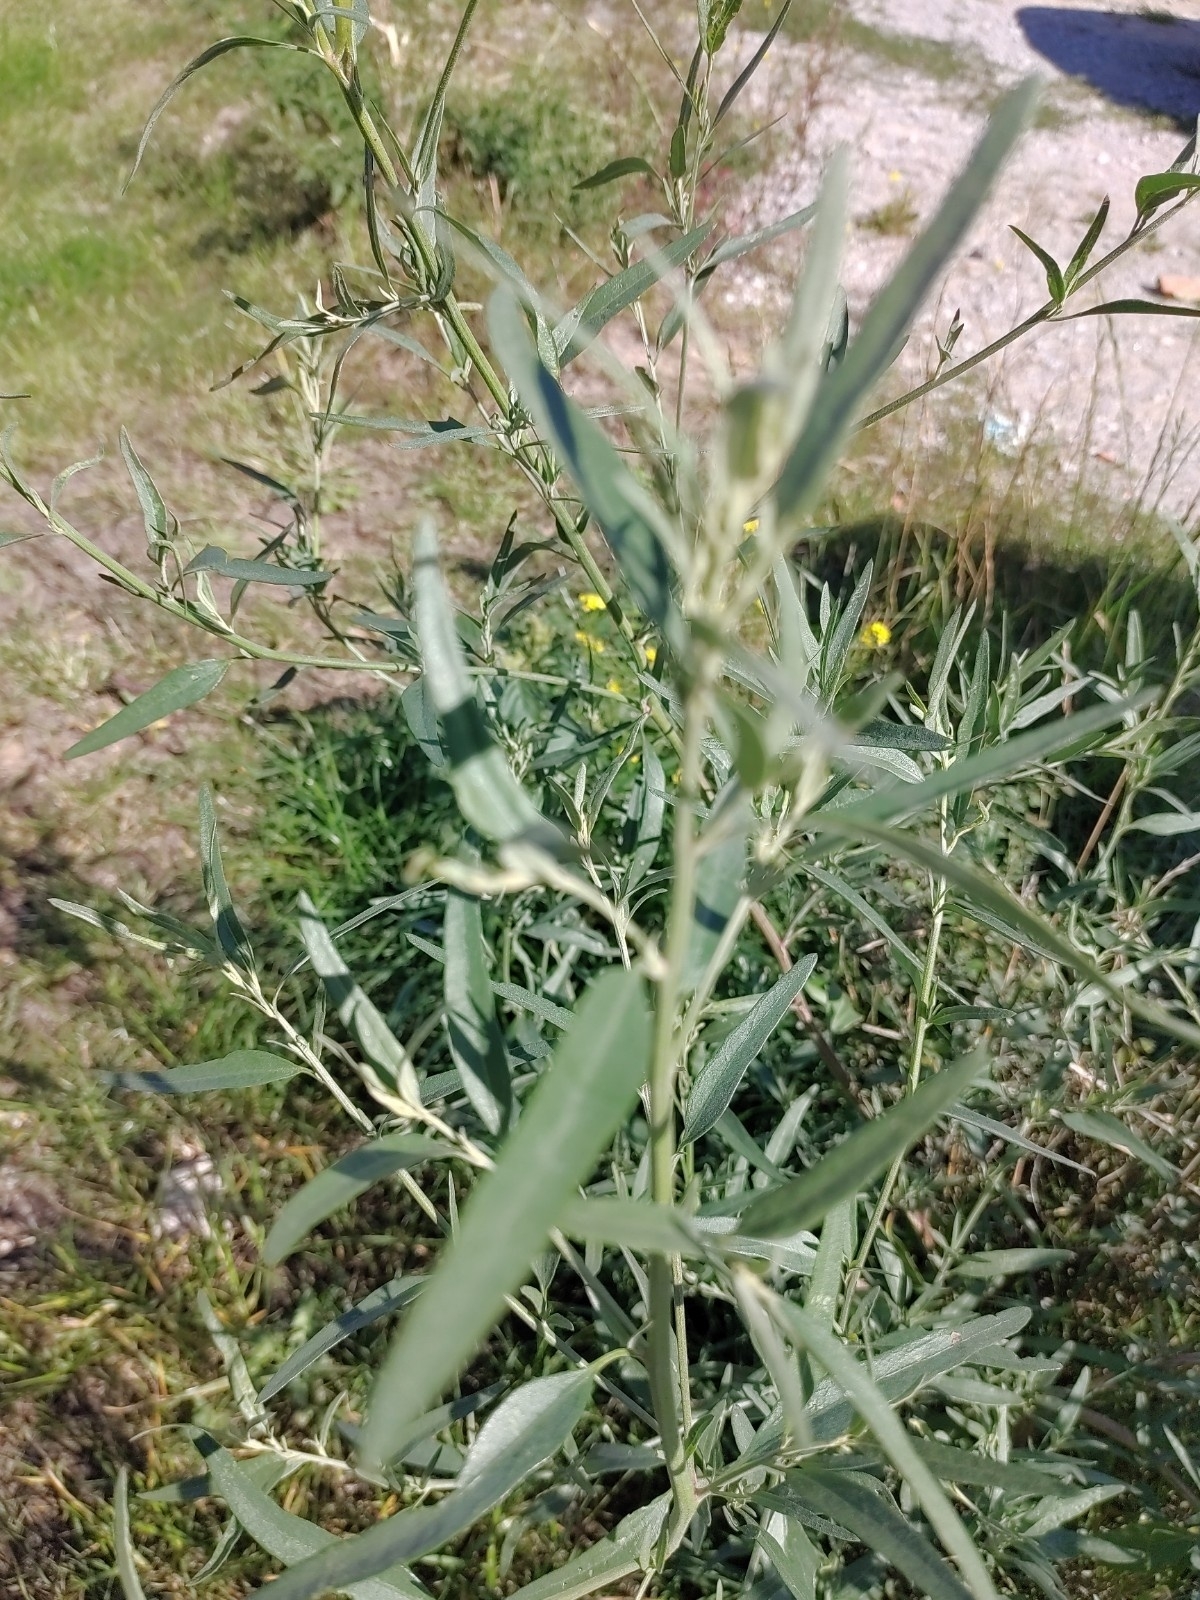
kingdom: Plantae
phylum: Tracheophyta
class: Magnoliopsida
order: Caryophyllales
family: Amaranthaceae
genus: Atriplex
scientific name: Atriplex oblongifolia
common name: Oblongleaf orache
